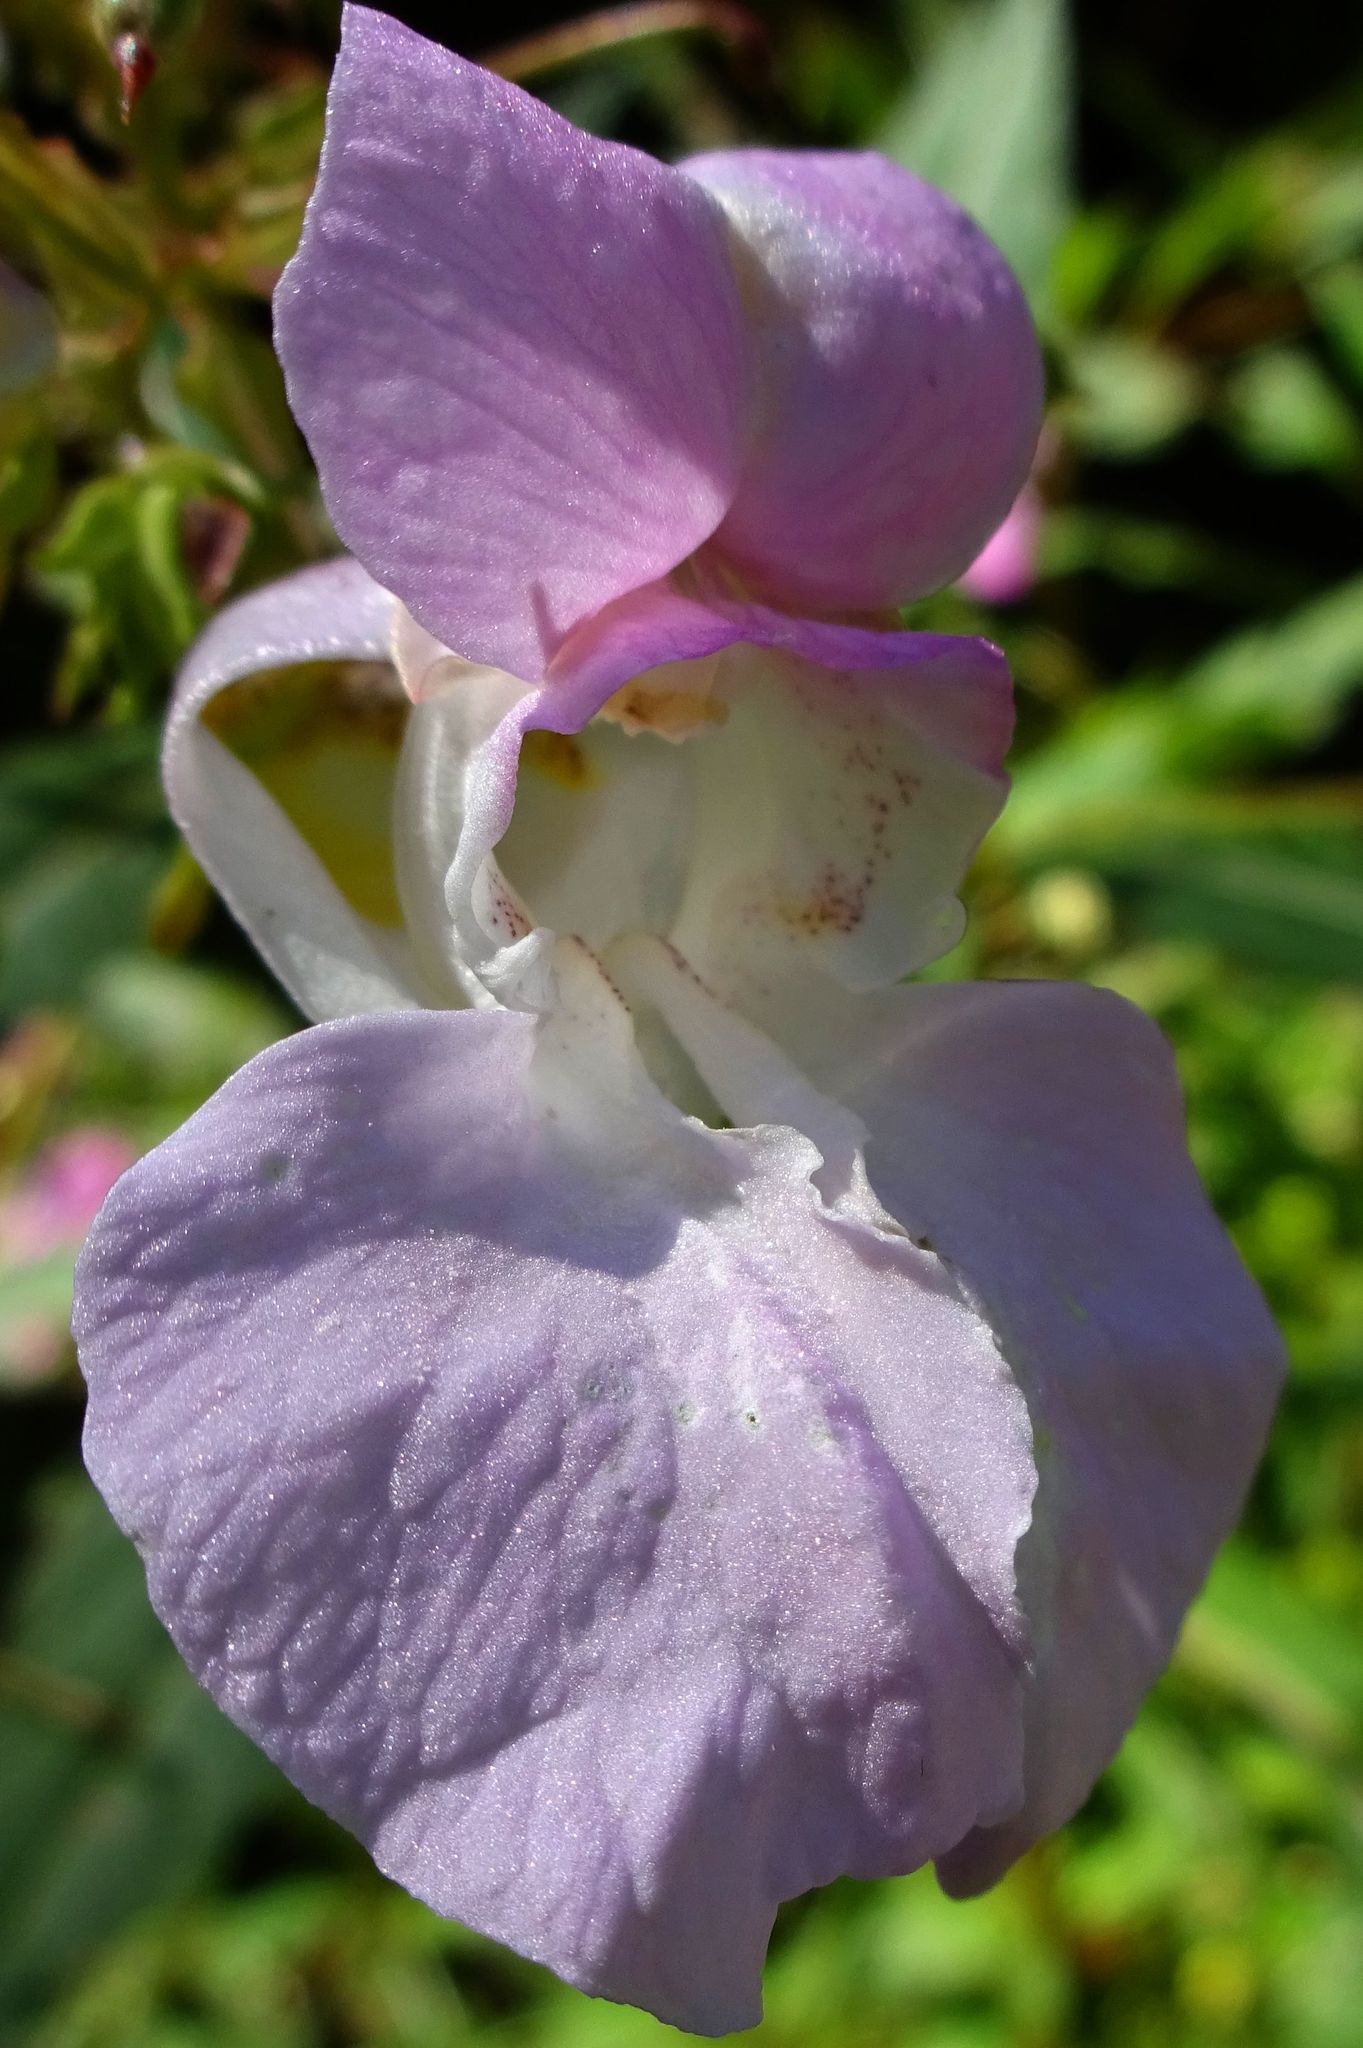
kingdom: Plantae
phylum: Tracheophyta
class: Magnoliopsida
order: Ericales
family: Balsaminaceae
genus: Impatiens
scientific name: Impatiens glandulifera
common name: Himalayan balsam
